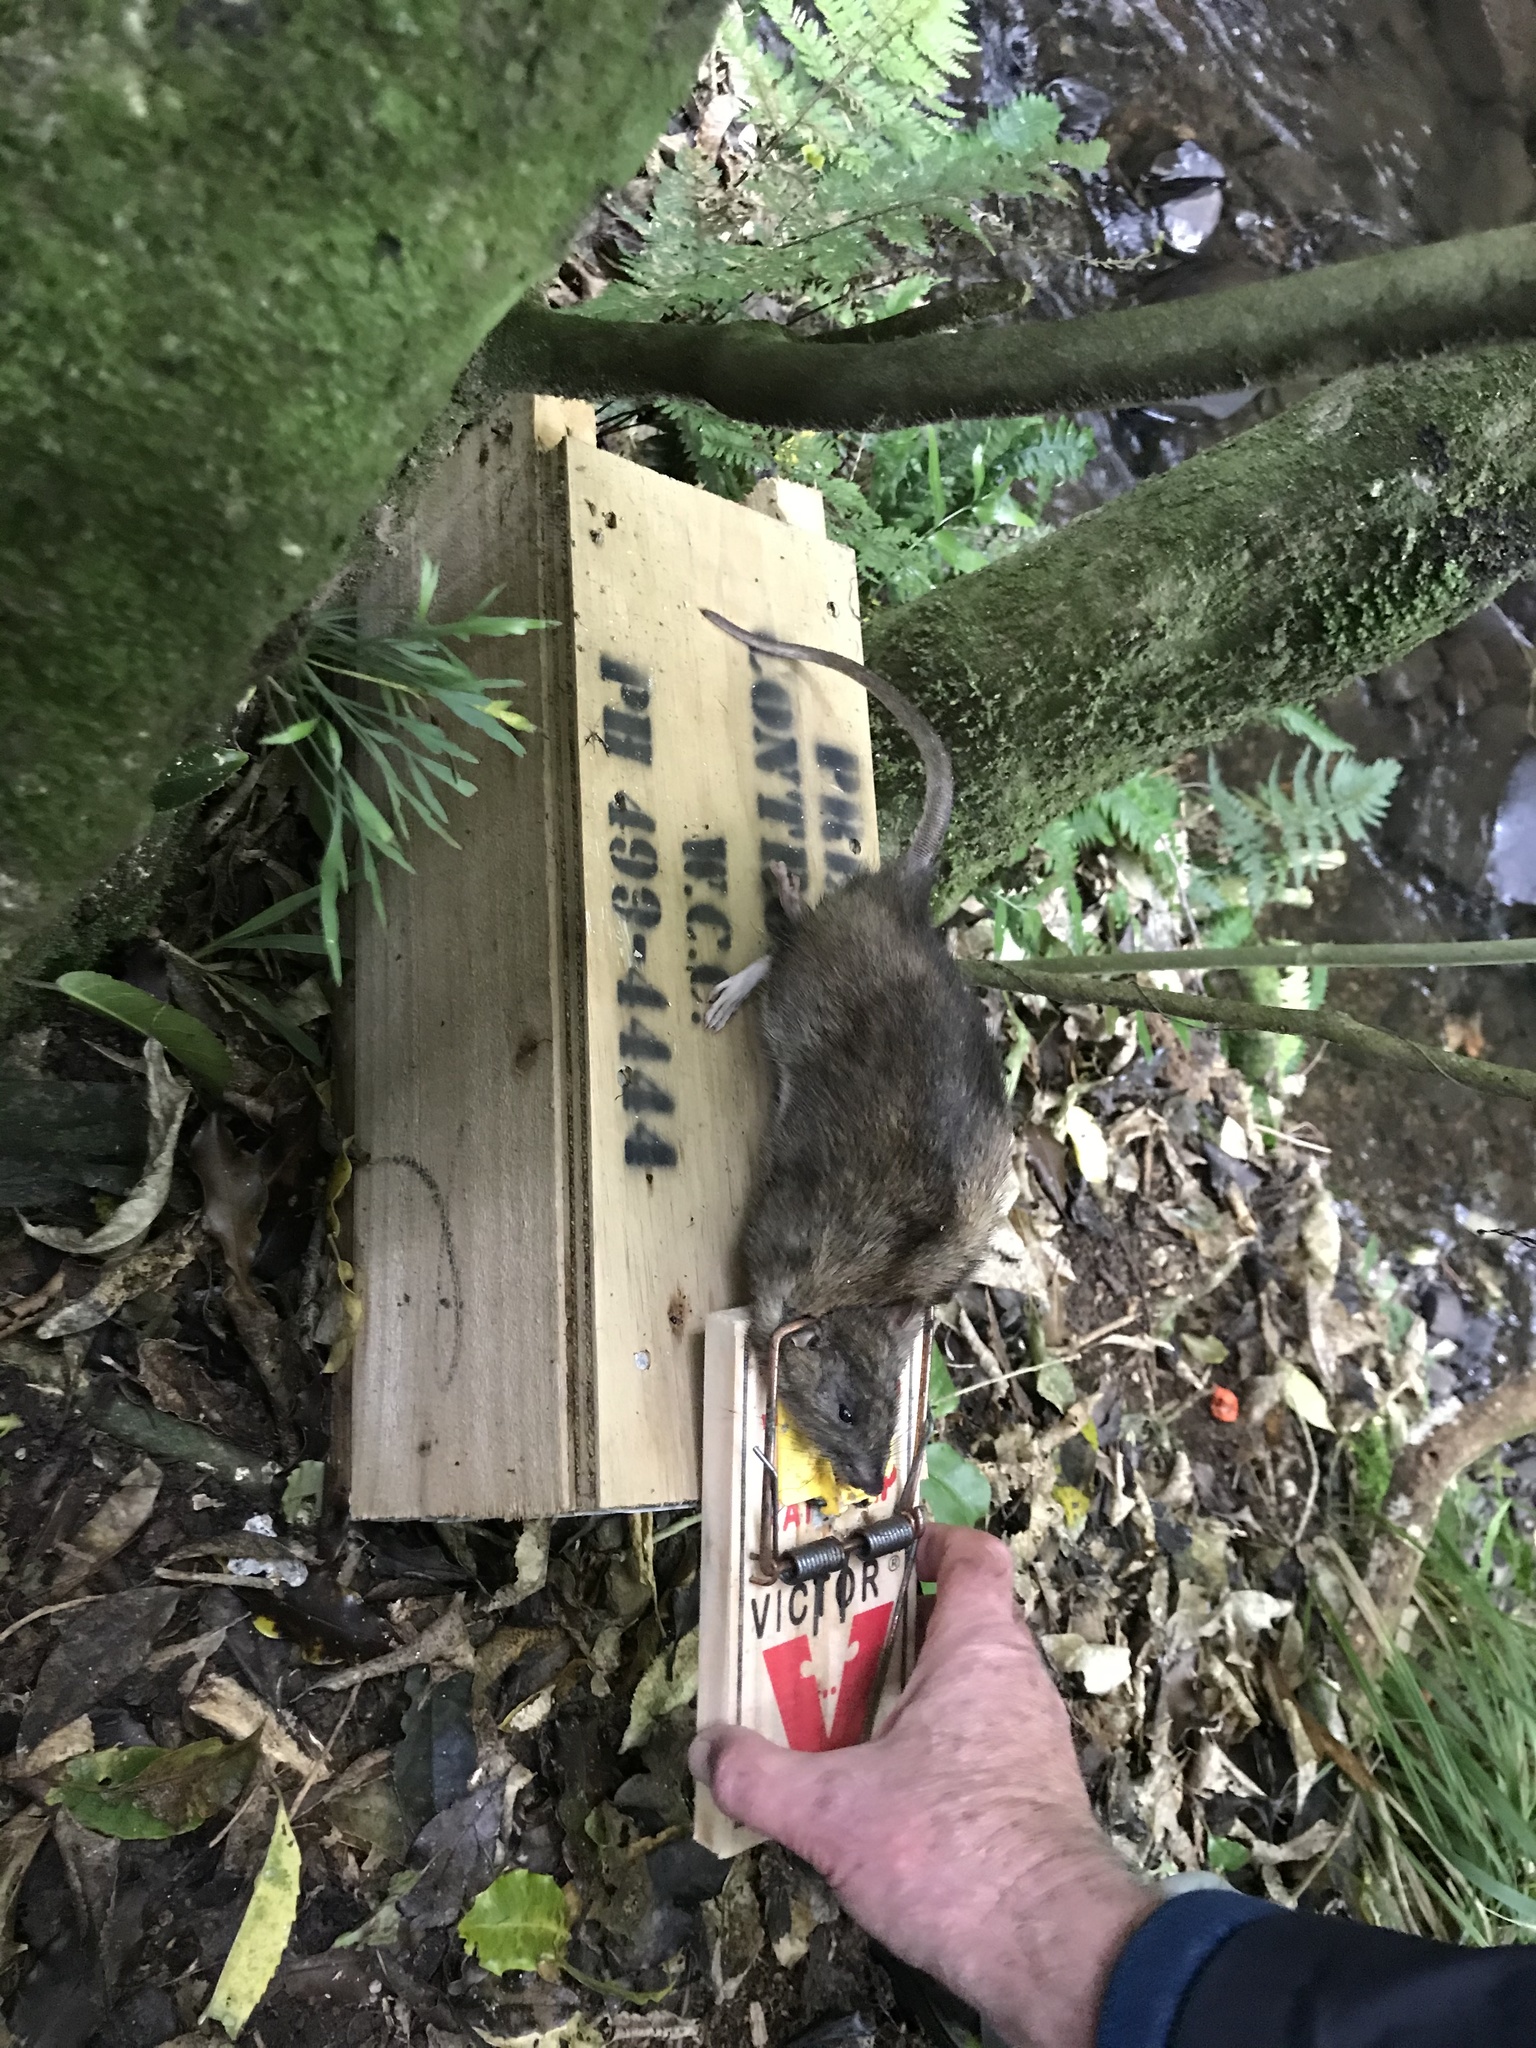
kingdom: Animalia
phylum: Chordata
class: Mammalia
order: Rodentia
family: Muridae
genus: Rattus
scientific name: Rattus norvegicus
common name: Brown rat
